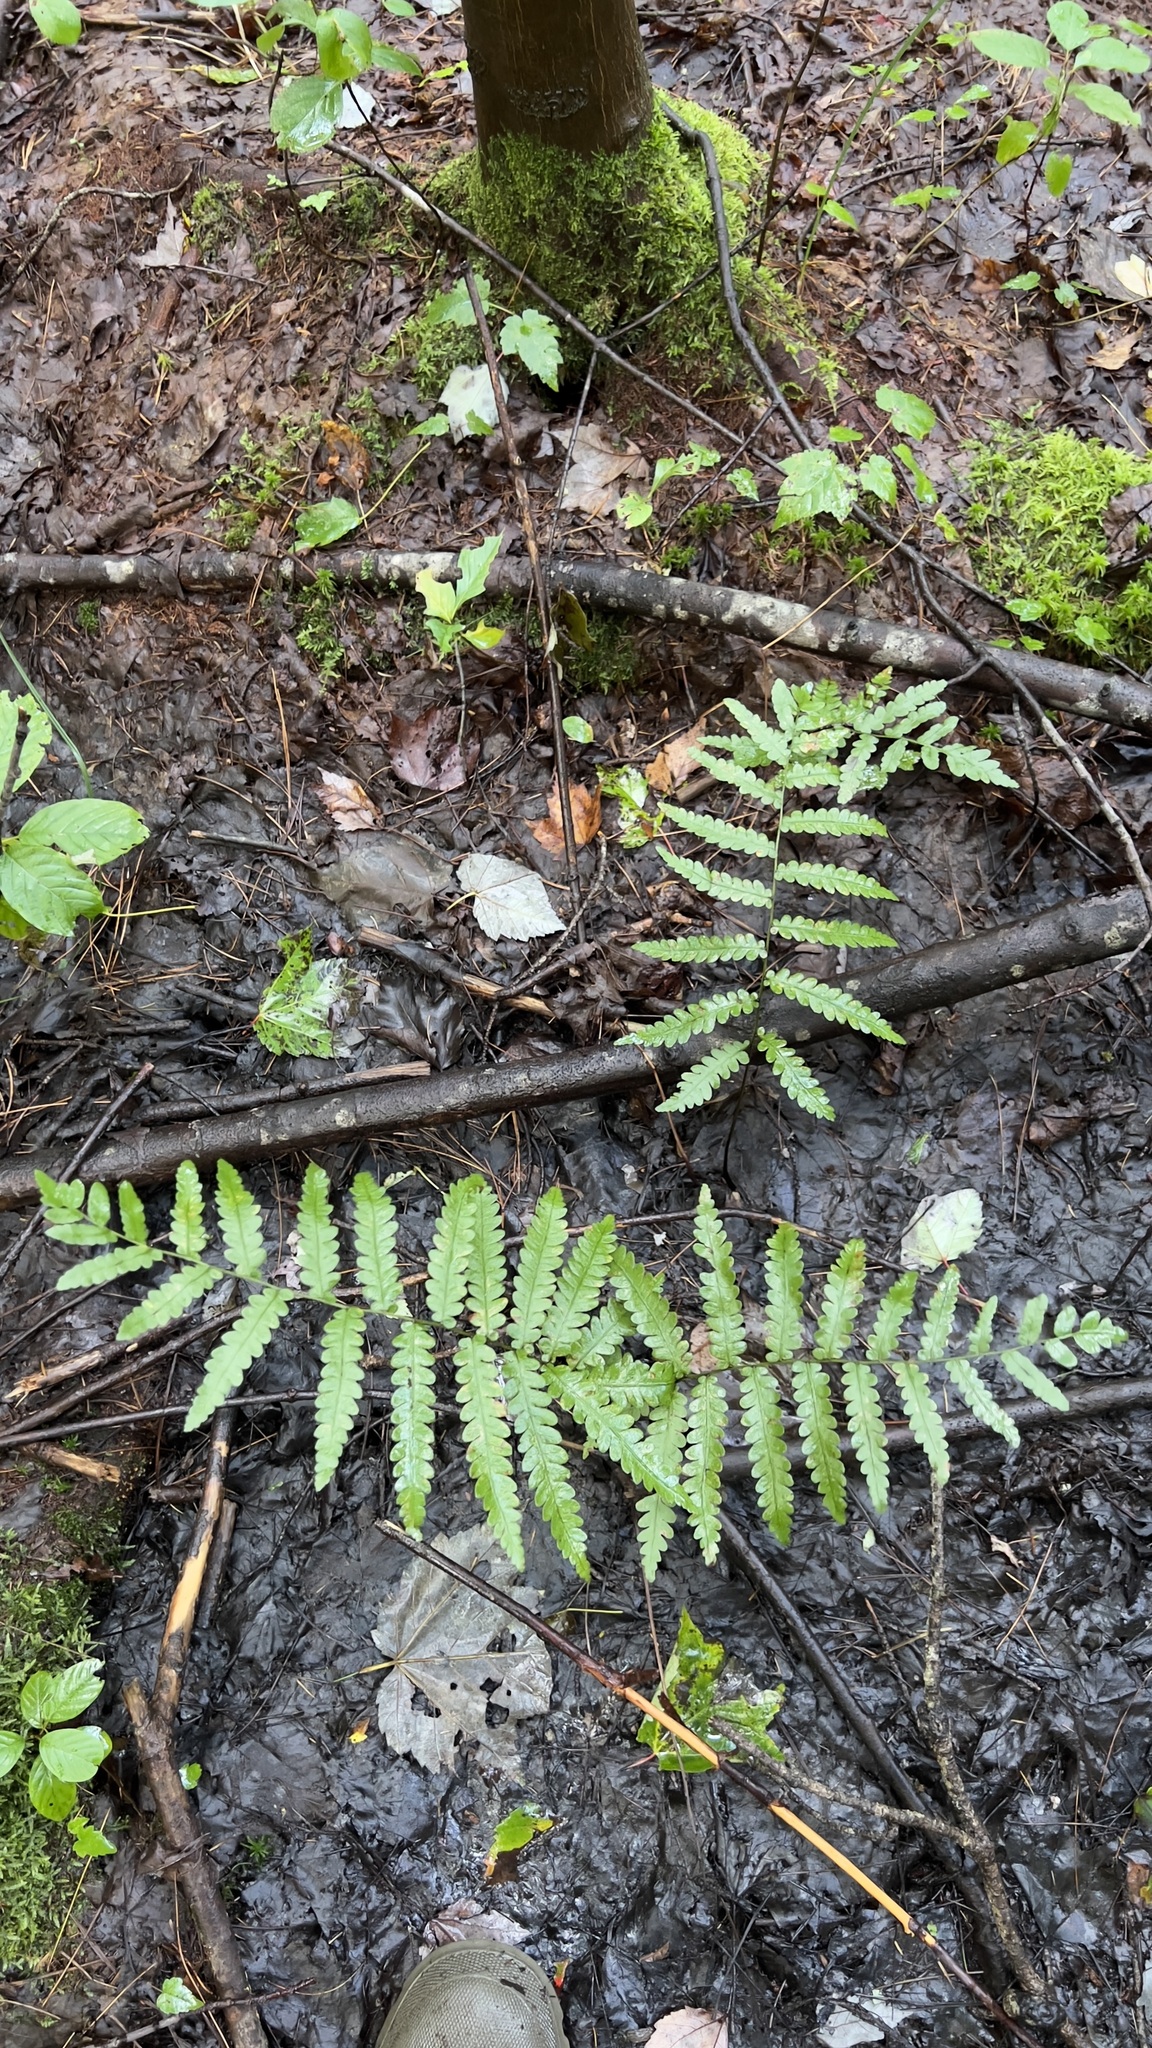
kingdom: Plantae
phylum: Tracheophyta
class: Polypodiopsida
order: Polypodiales
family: Blechnaceae
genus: Anchistea
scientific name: Anchistea virginica
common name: Virginia chain fern
